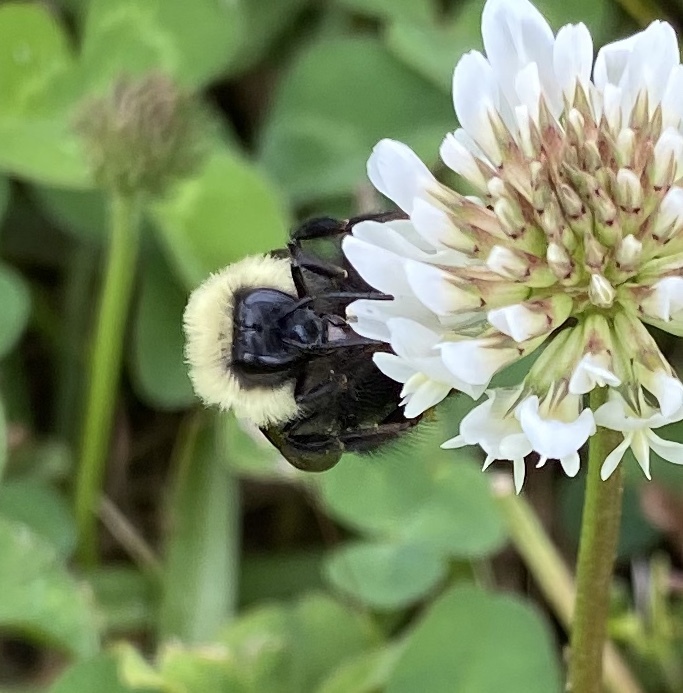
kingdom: Animalia
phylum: Arthropoda
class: Insecta
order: Hymenoptera
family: Apidae
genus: Bombus
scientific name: Bombus bimaculatus
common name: Two-spotted bumble bee
